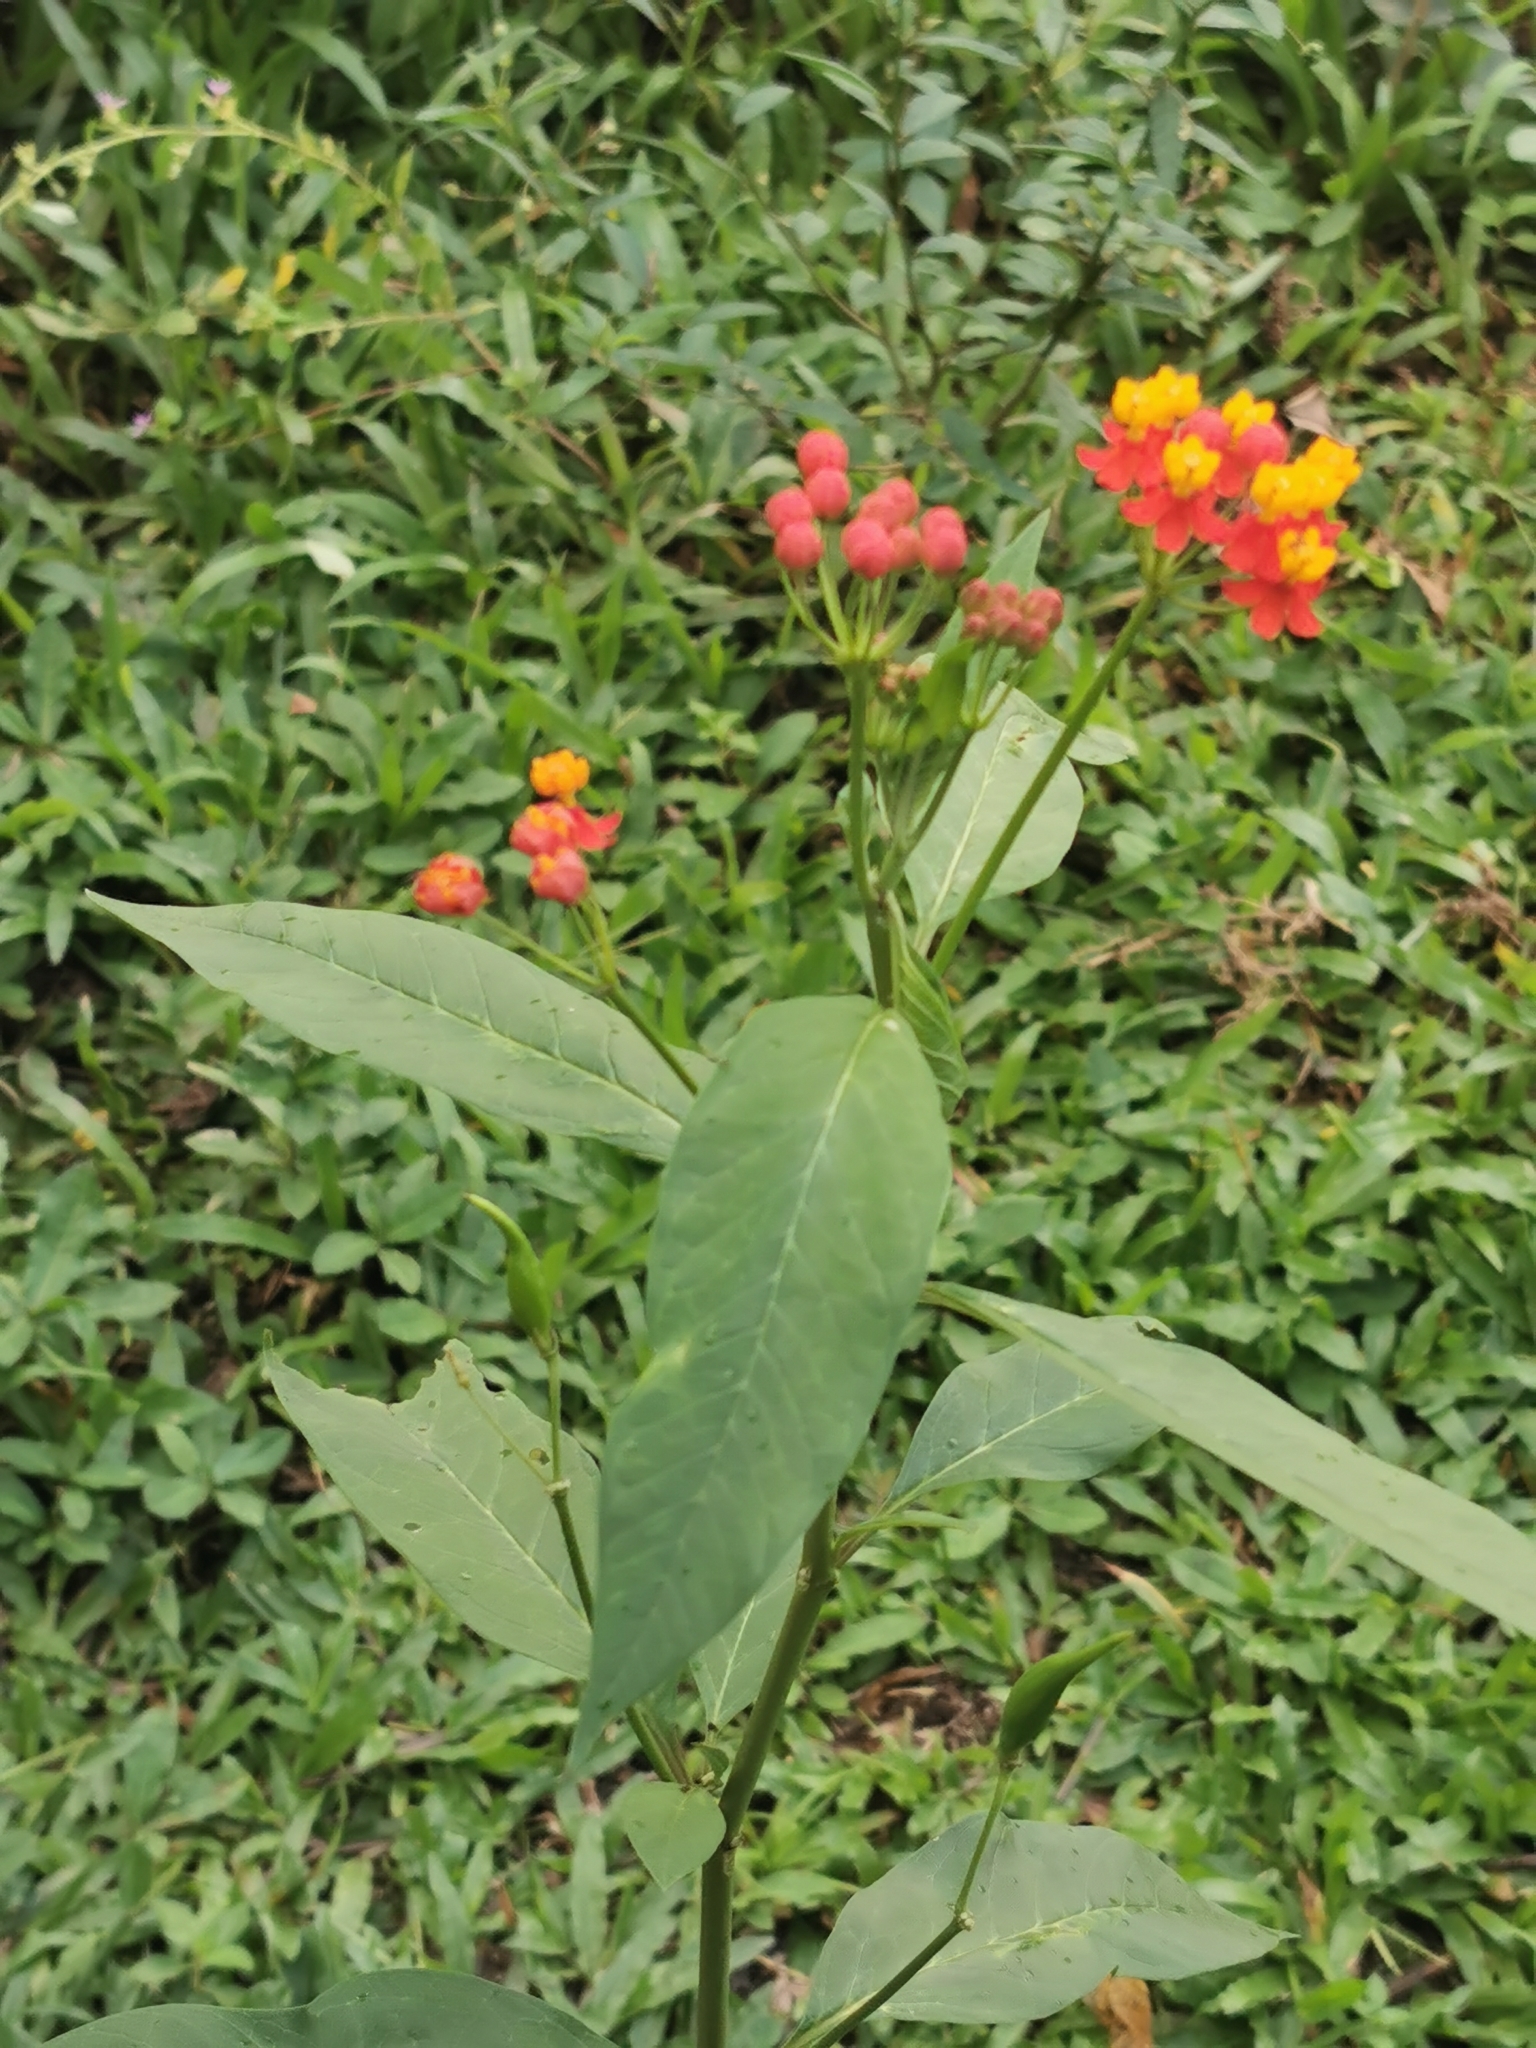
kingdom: Plantae
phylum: Tracheophyta
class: Magnoliopsida
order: Gentianales
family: Apocynaceae
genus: Asclepias
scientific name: Asclepias curassavica
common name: Bloodflower
